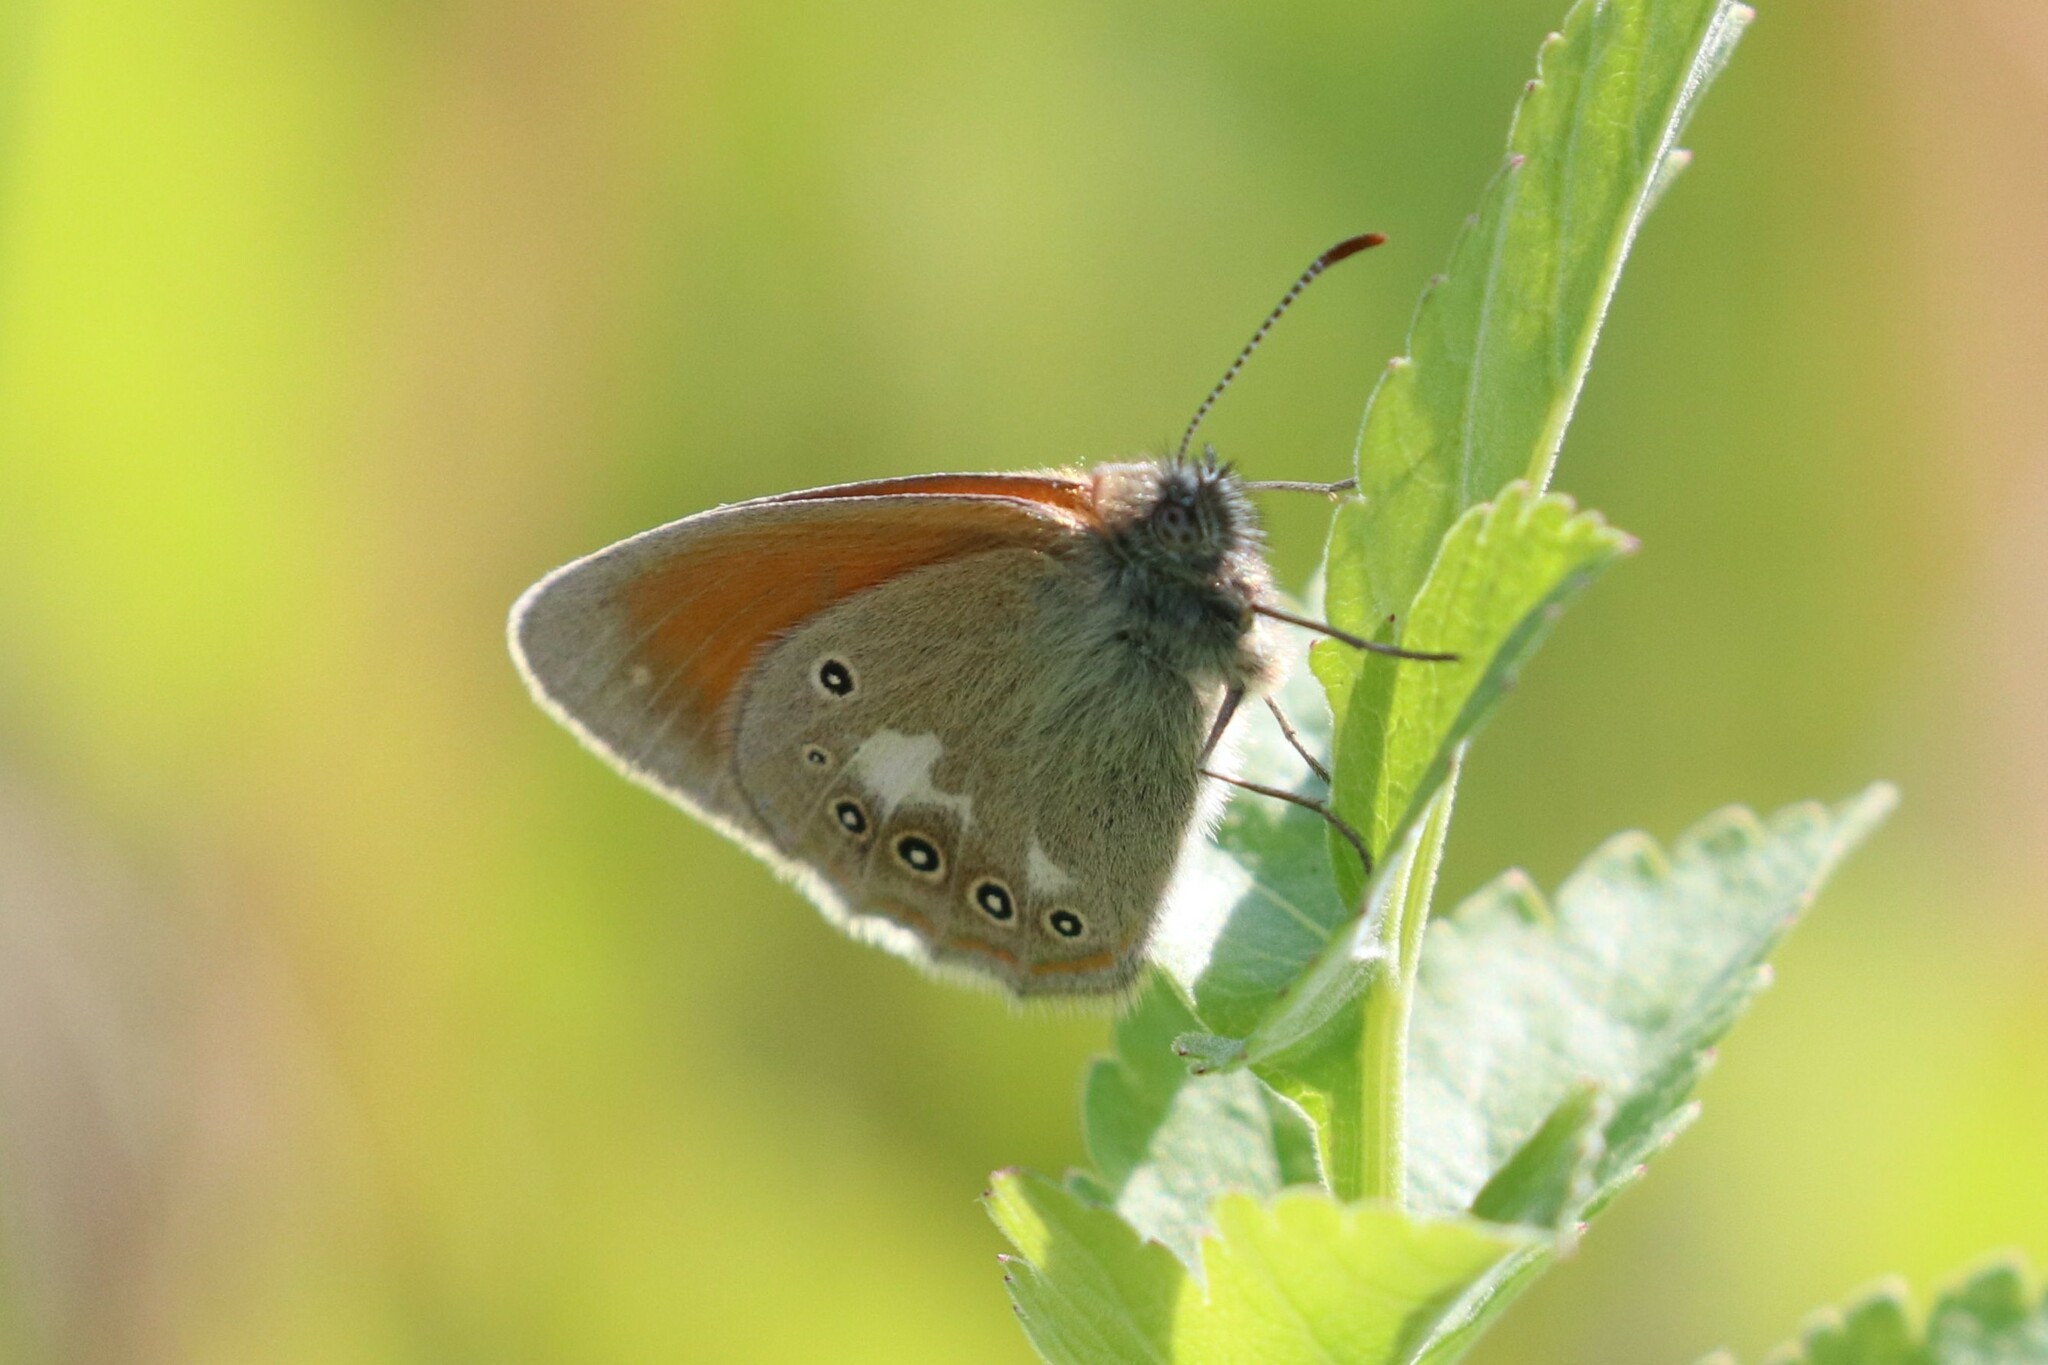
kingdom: Animalia
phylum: Arthropoda
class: Insecta
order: Lepidoptera
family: Nymphalidae
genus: Coenonympha
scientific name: Coenonympha iphis
